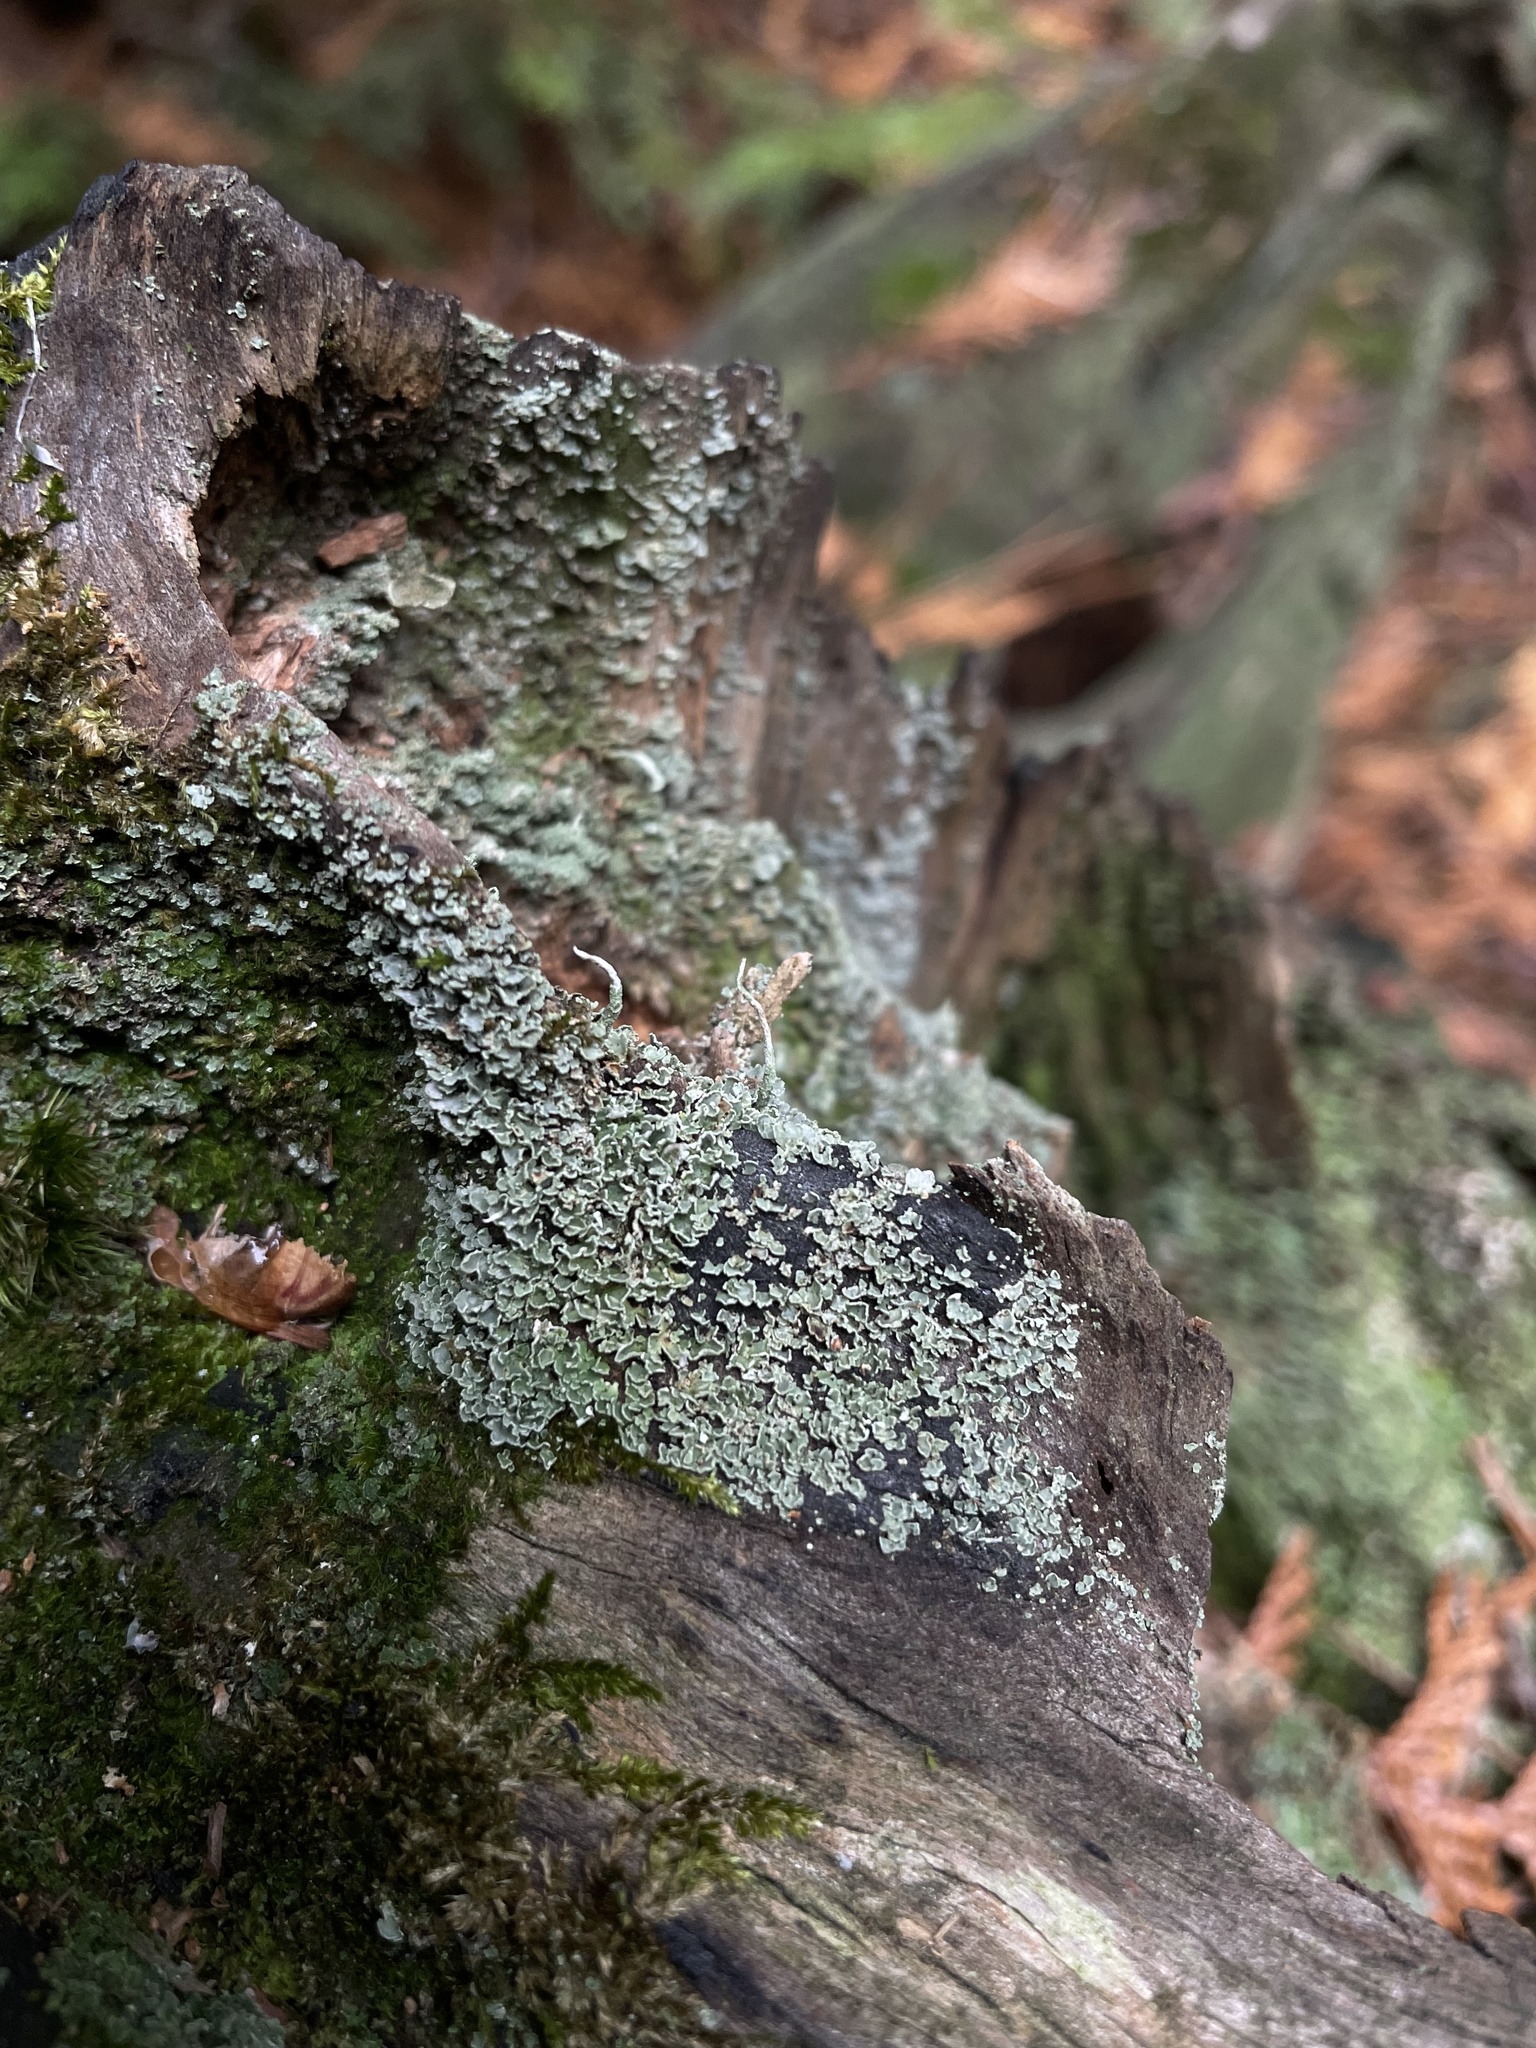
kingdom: Fungi
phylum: Ascomycota
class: Lecanoromycetes
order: Lecanorales
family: Cladoniaceae
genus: Cladonia
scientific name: Cladonia coniocraea
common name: Common powderhorn
